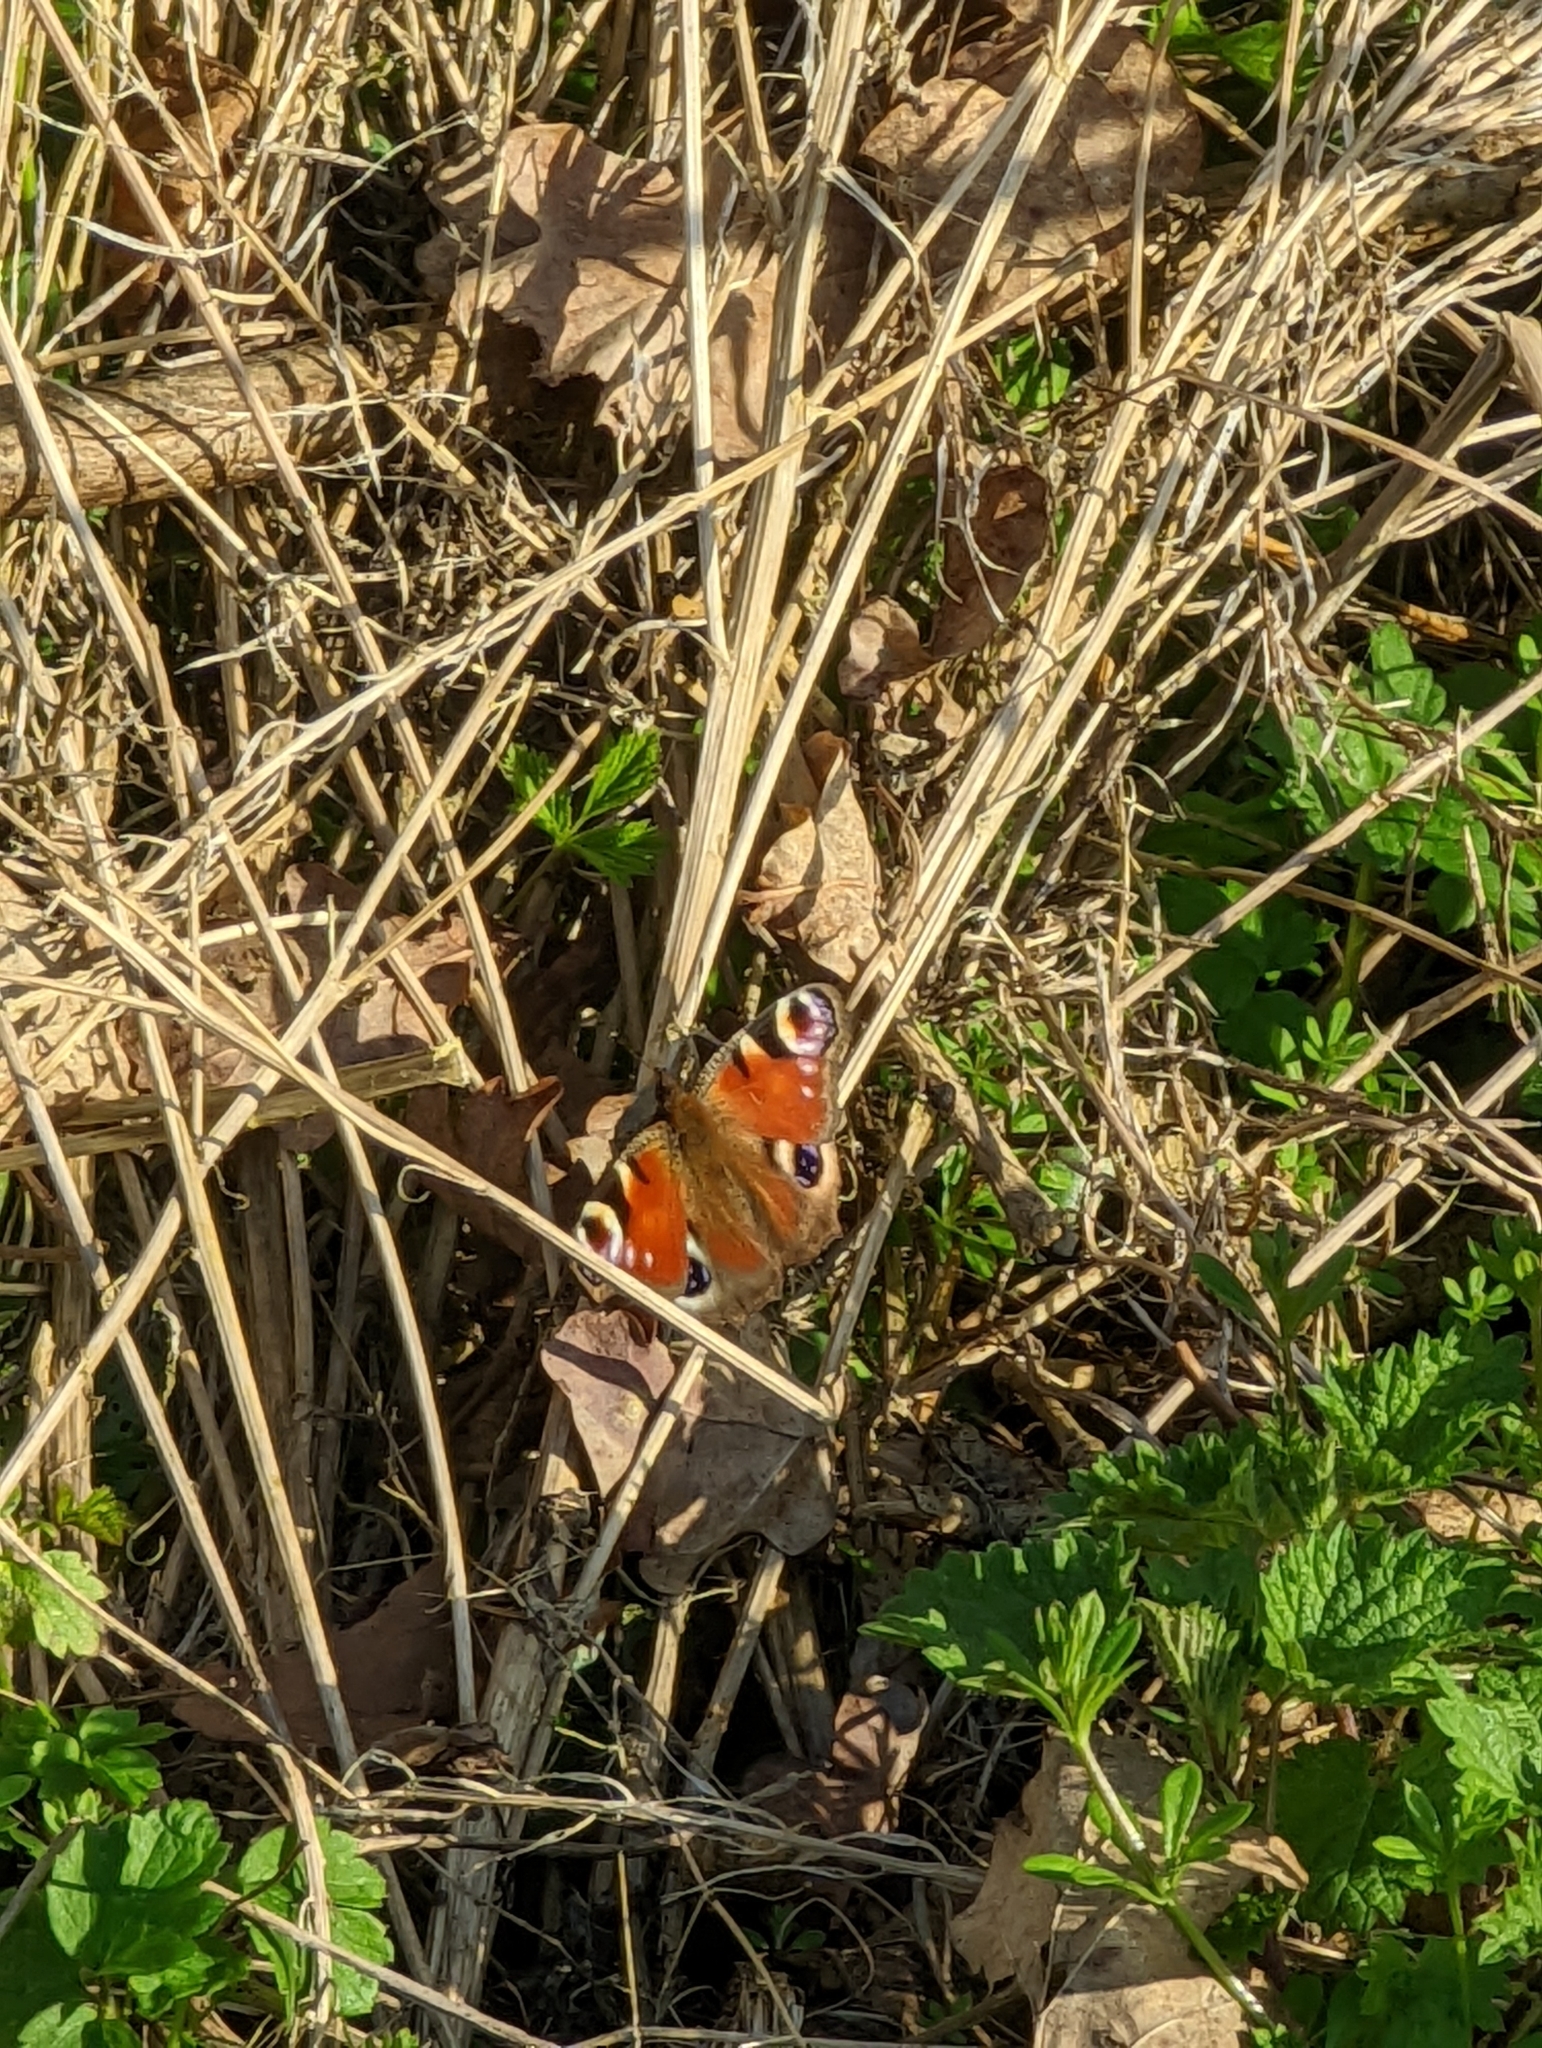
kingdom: Animalia
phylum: Arthropoda
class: Insecta
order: Lepidoptera
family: Nymphalidae
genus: Aglais
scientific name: Aglais io
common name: Peacock
